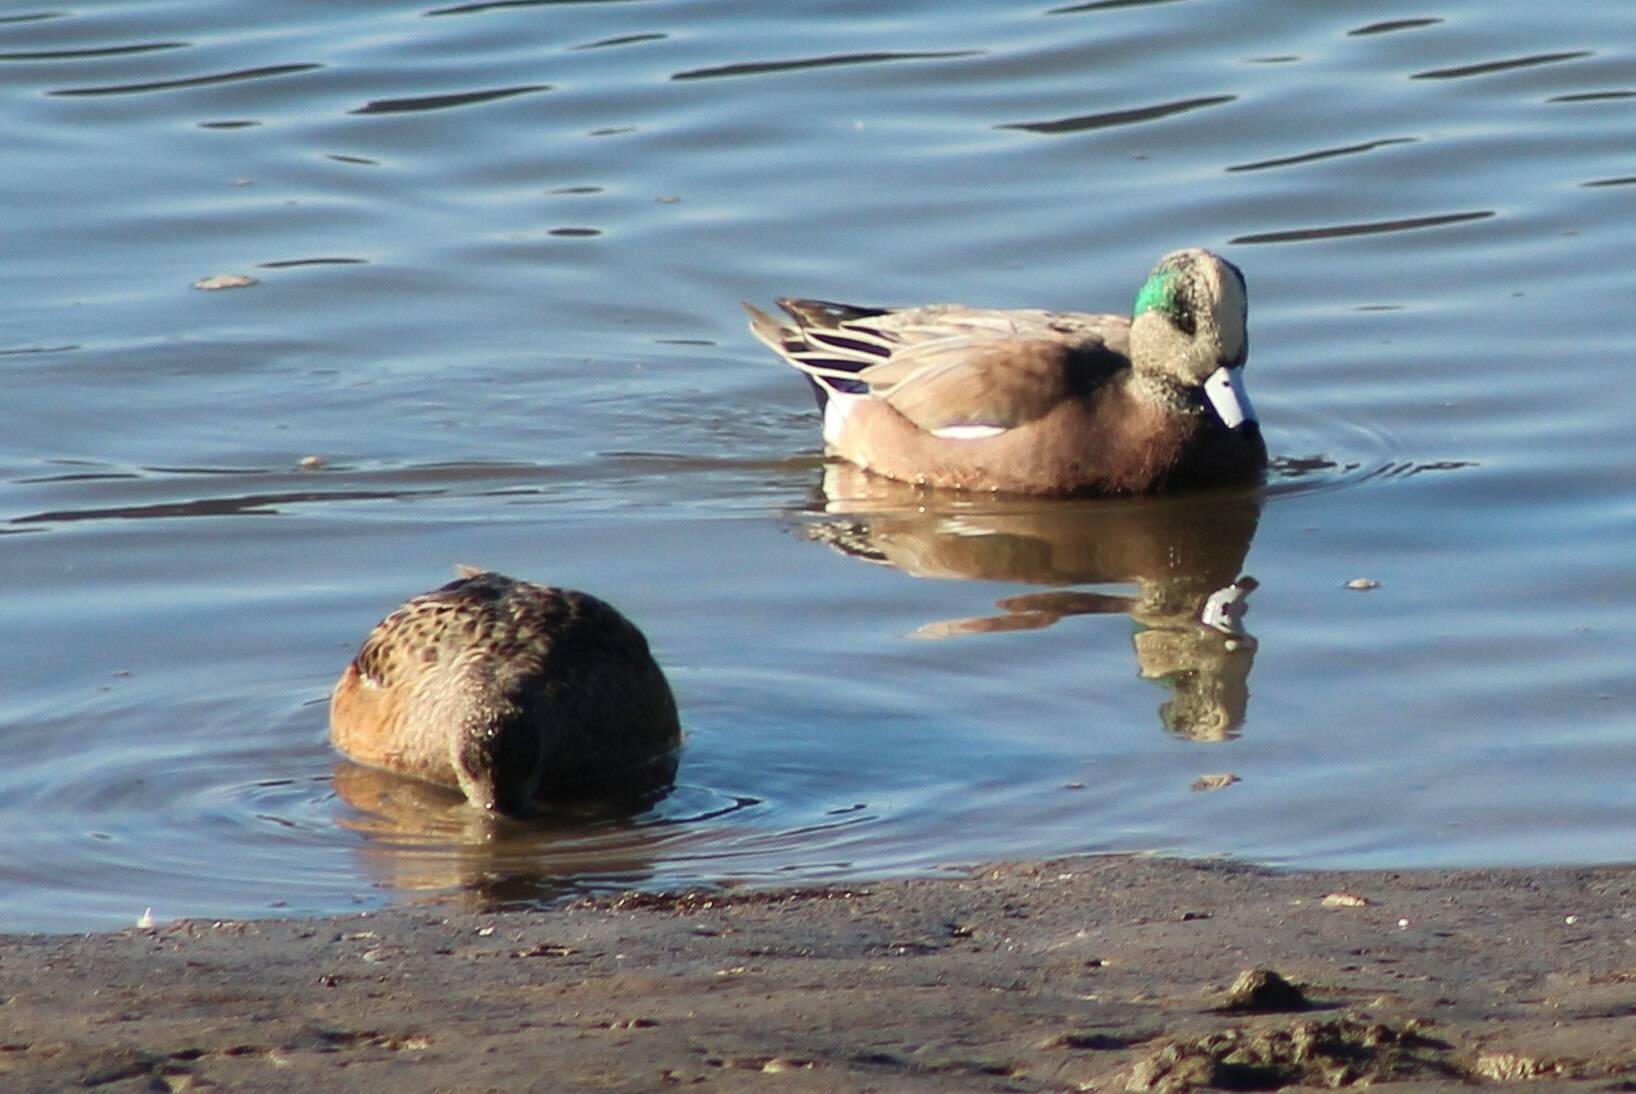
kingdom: Animalia
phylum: Chordata
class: Aves
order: Anseriformes
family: Anatidae
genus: Mareca
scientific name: Mareca americana
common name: American wigeon
